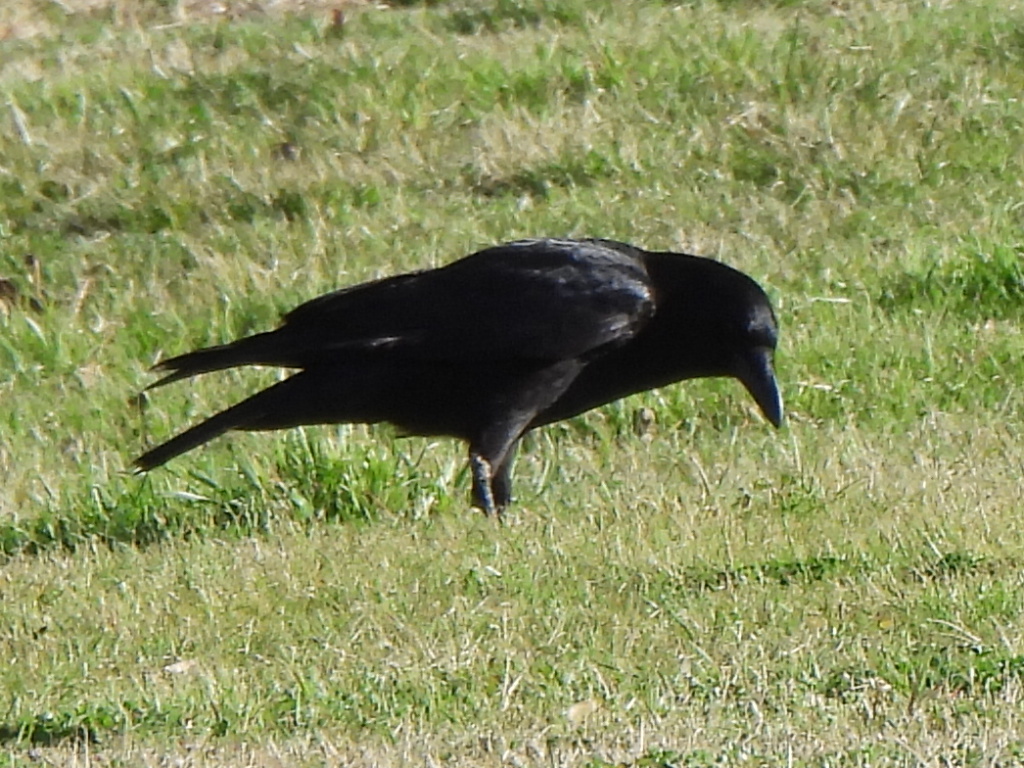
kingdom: Animalia
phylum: Chordata
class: Aves
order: Passeriformes
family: Corvidae
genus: Corvus
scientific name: Corvus brachyrhynchos
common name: American crow
